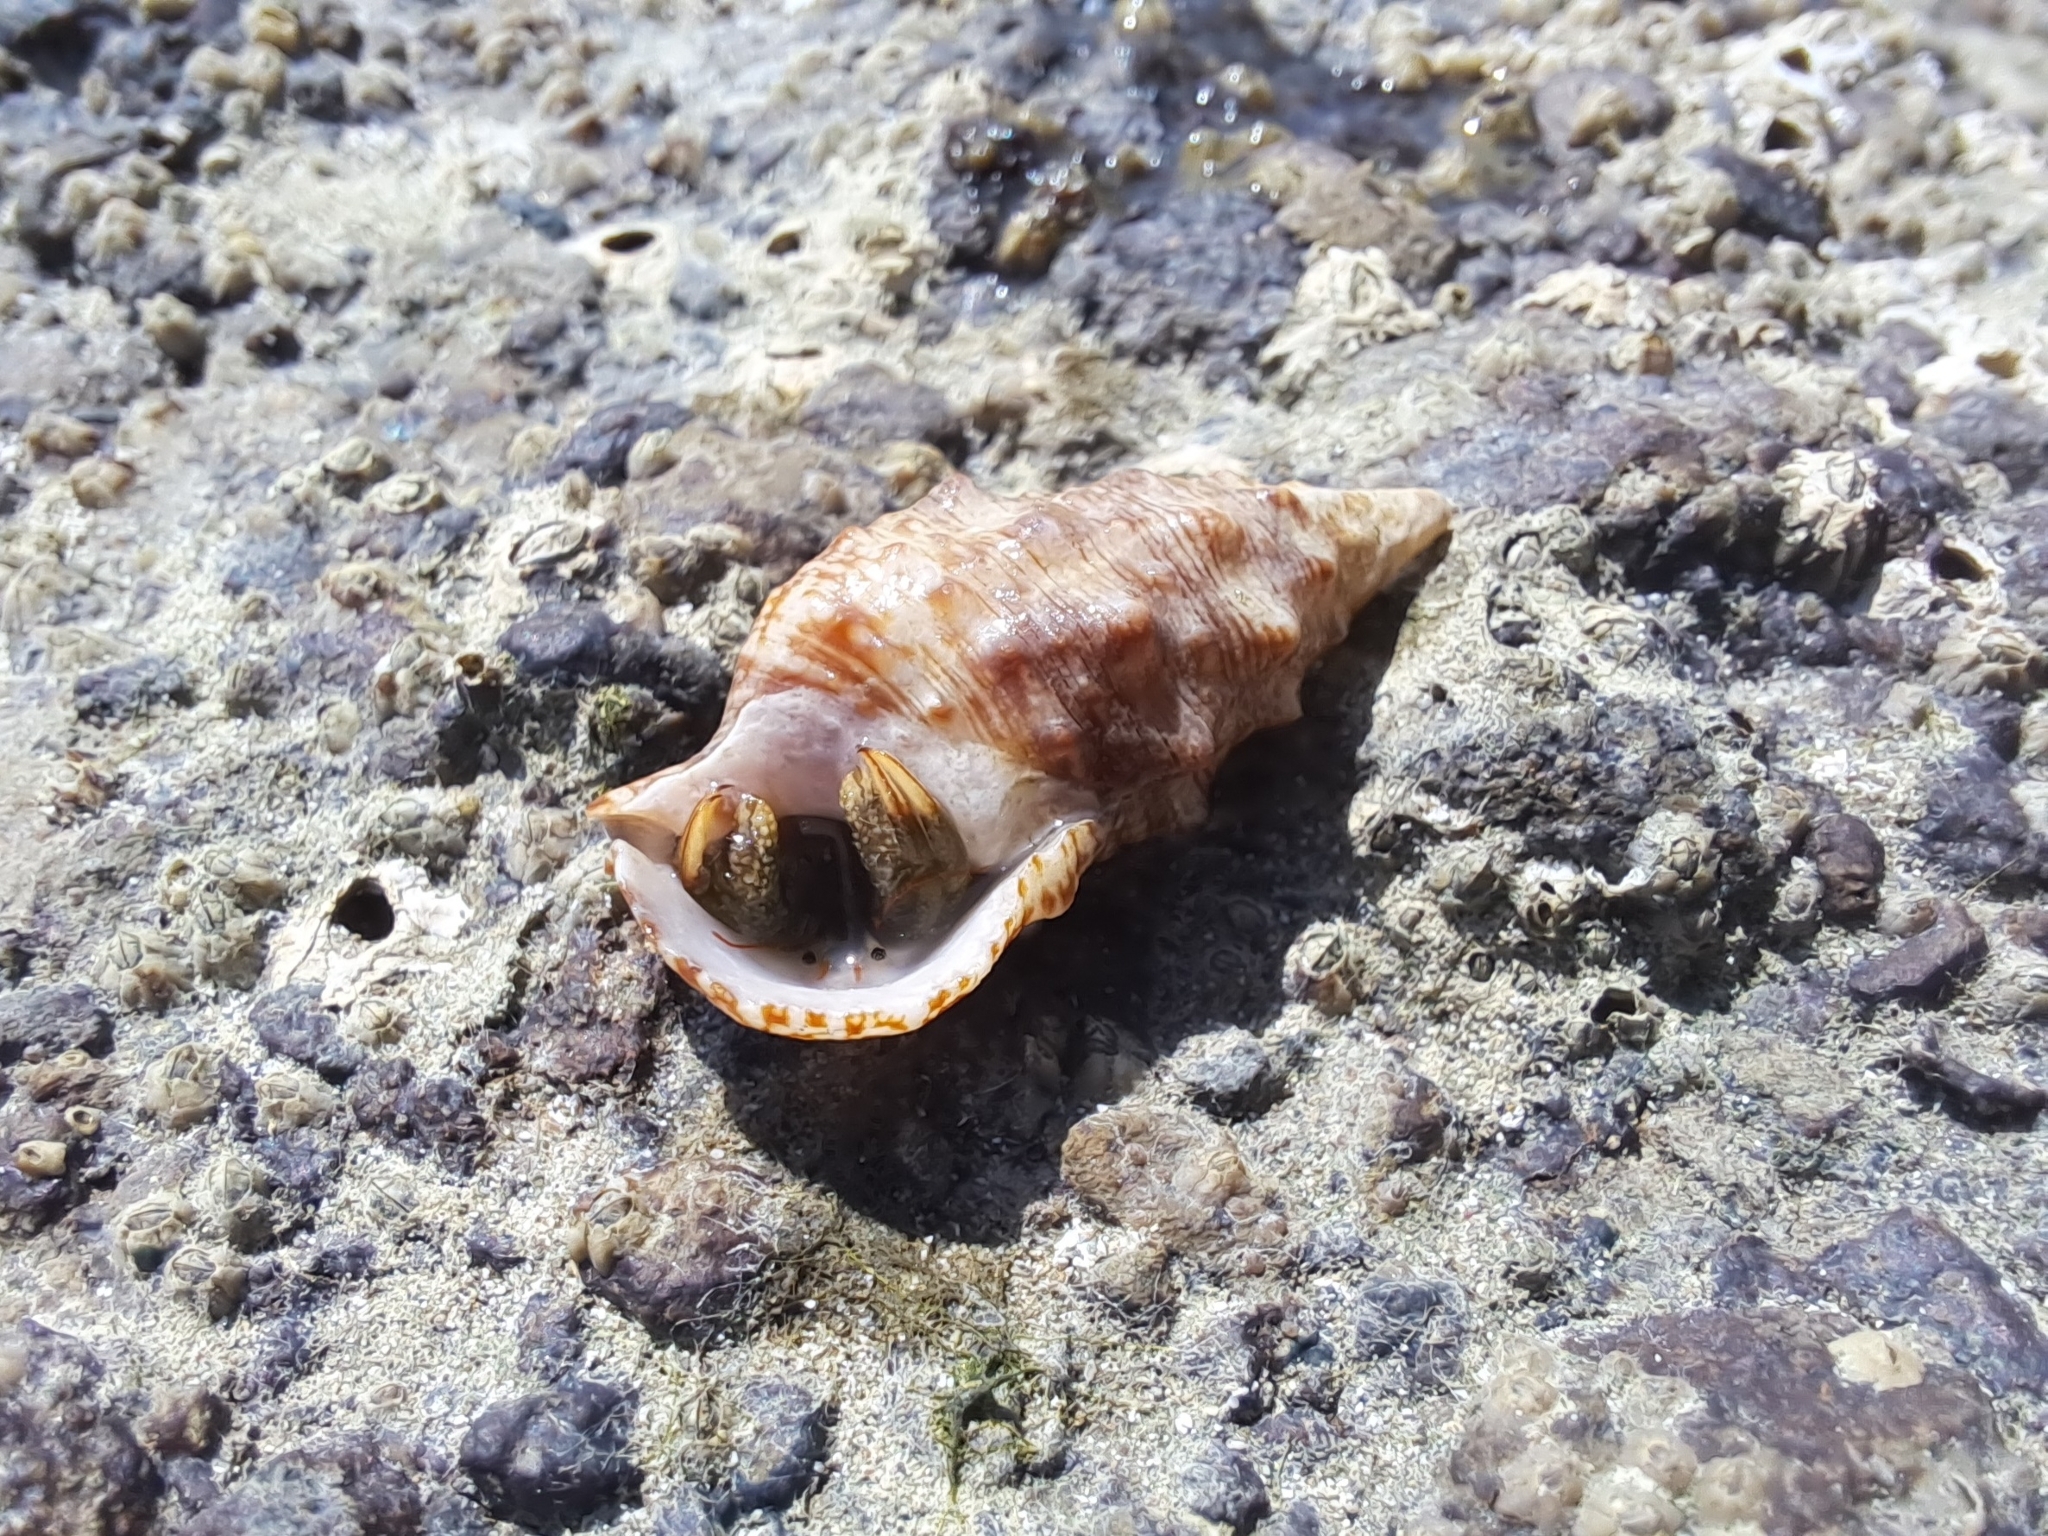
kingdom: Animalia
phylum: Mollusca
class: Gastropoda
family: Cerithiidae
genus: Cerithium
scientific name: Cerithium maculosum
